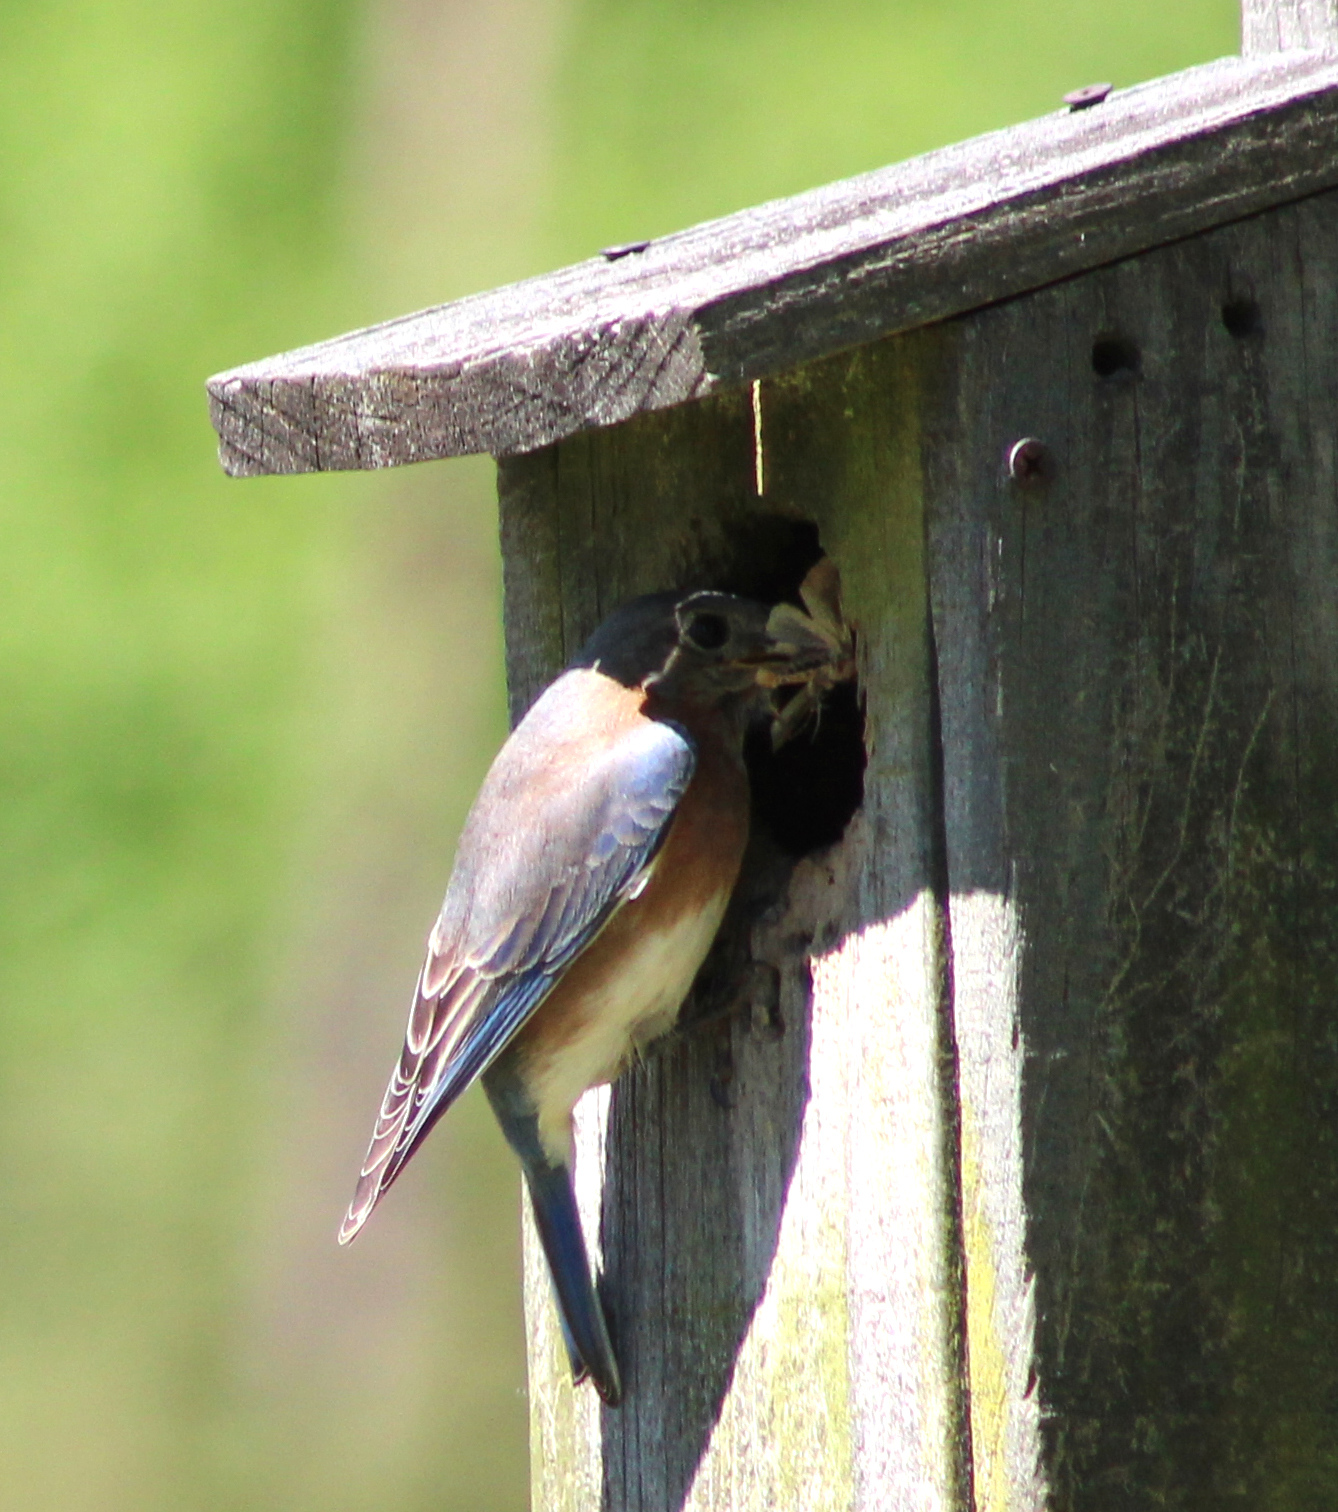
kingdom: Animalia
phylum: Chordata
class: Aves
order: Passeriformes
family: Turdidae
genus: Sialia
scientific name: Sialia sialis
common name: Eastern bluebird
